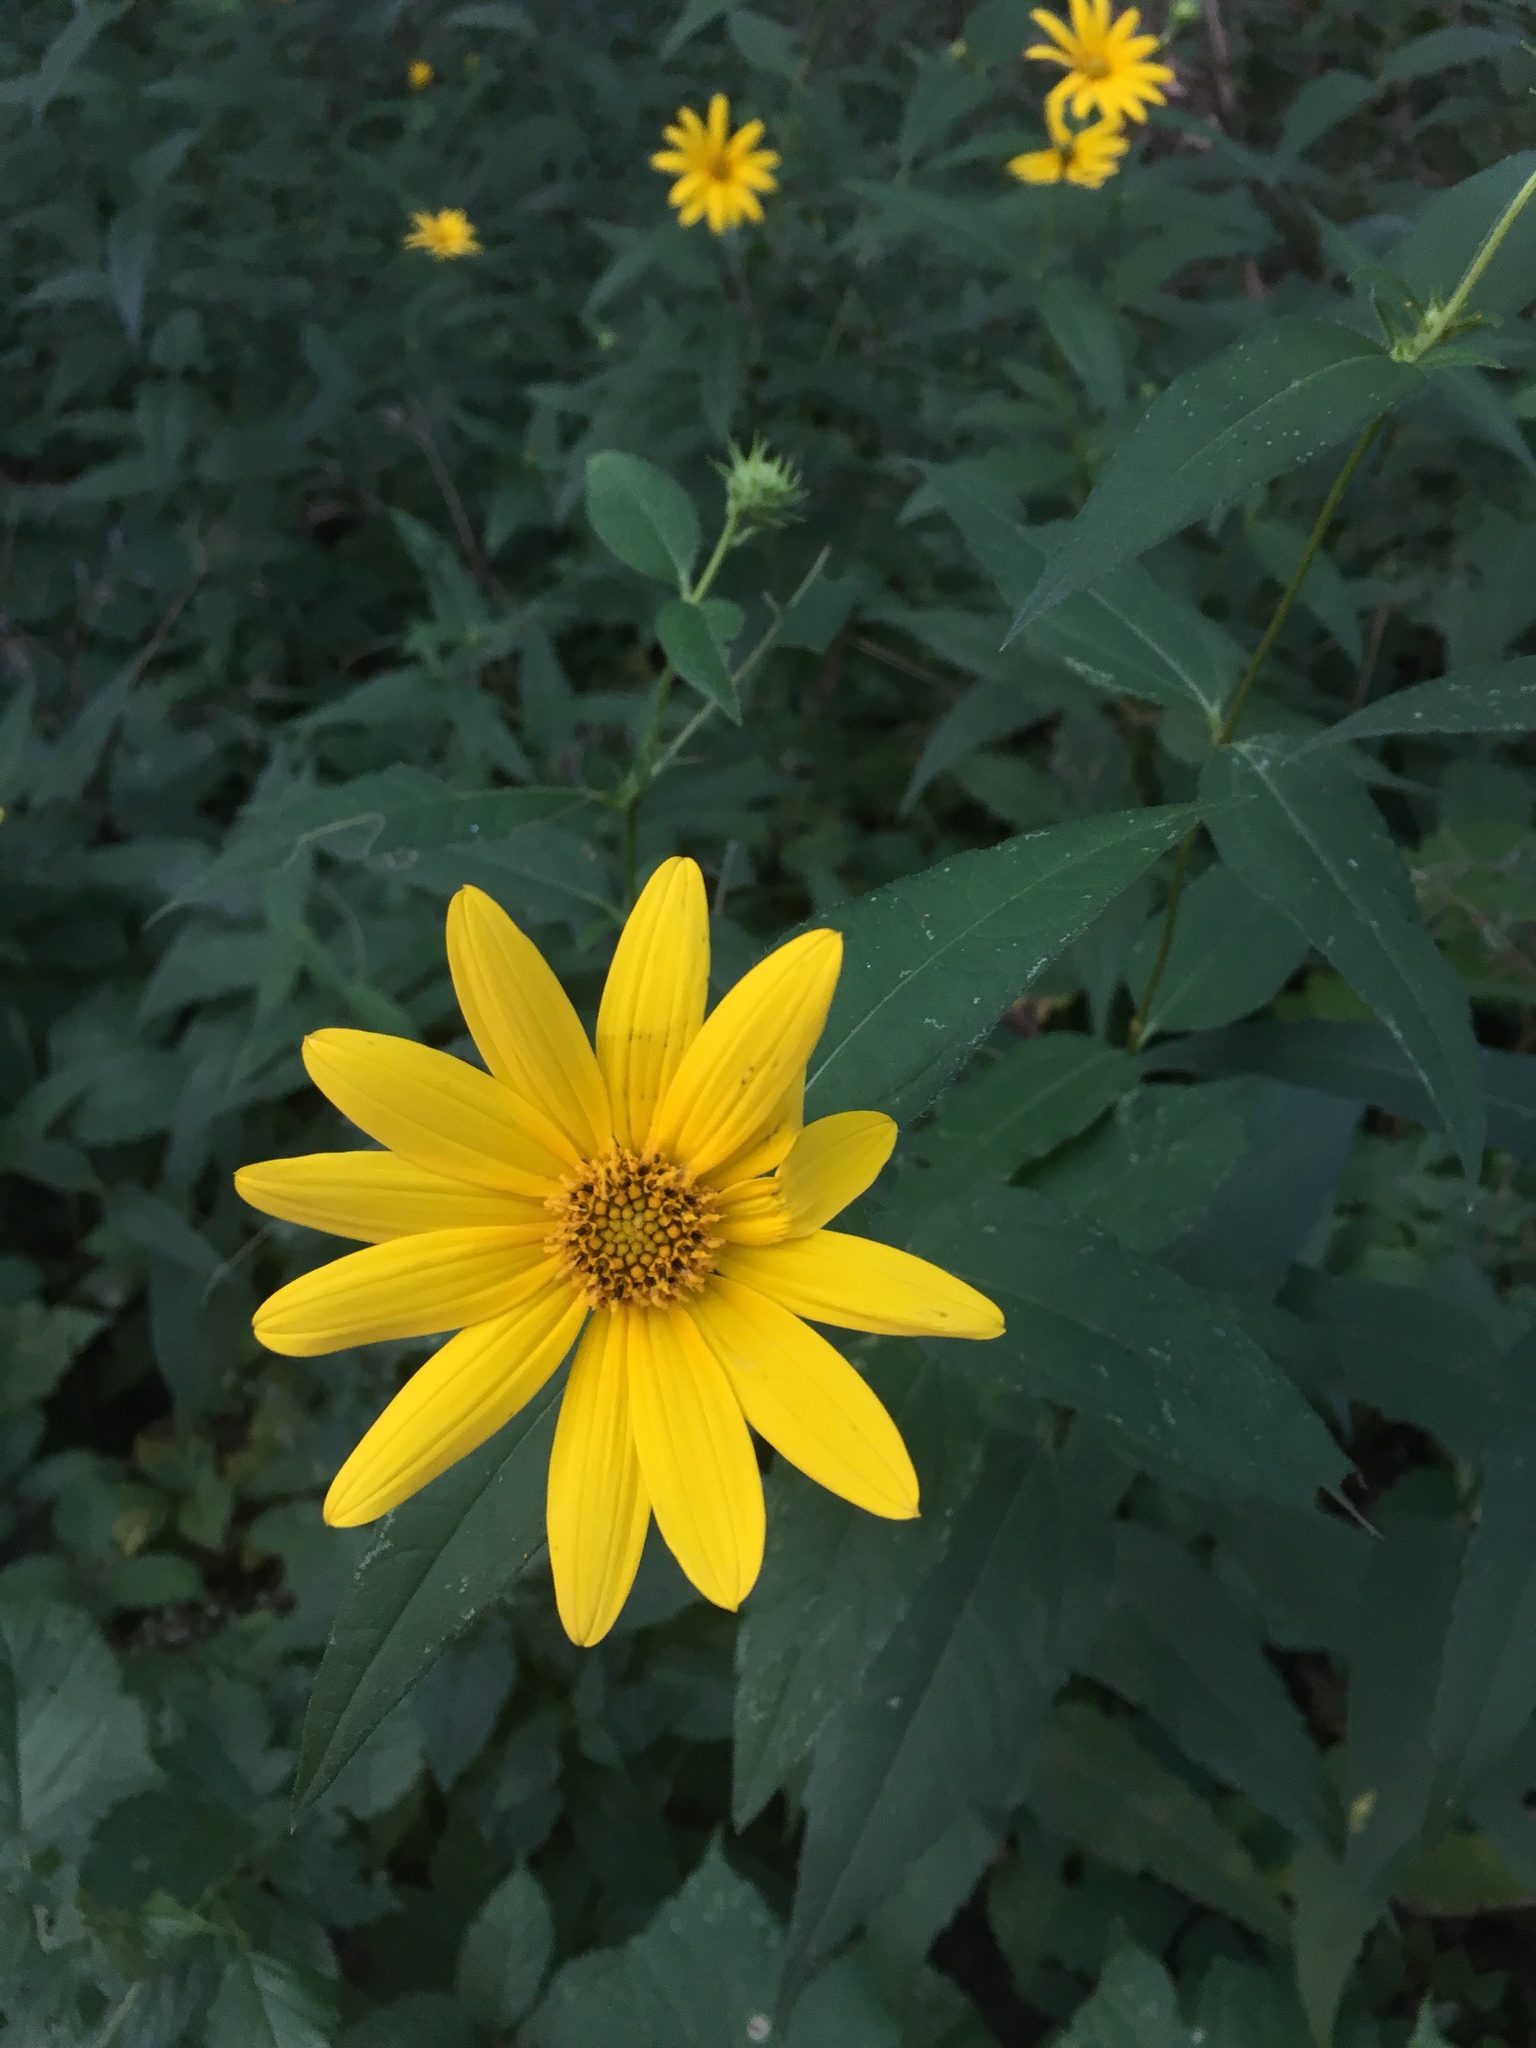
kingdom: Plantae
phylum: Tracheophyta
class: Magnoliopsida
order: Asterales
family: Asteraceae
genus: Helianthus
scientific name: Helianthus divaricatus
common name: Divergent sunflower
